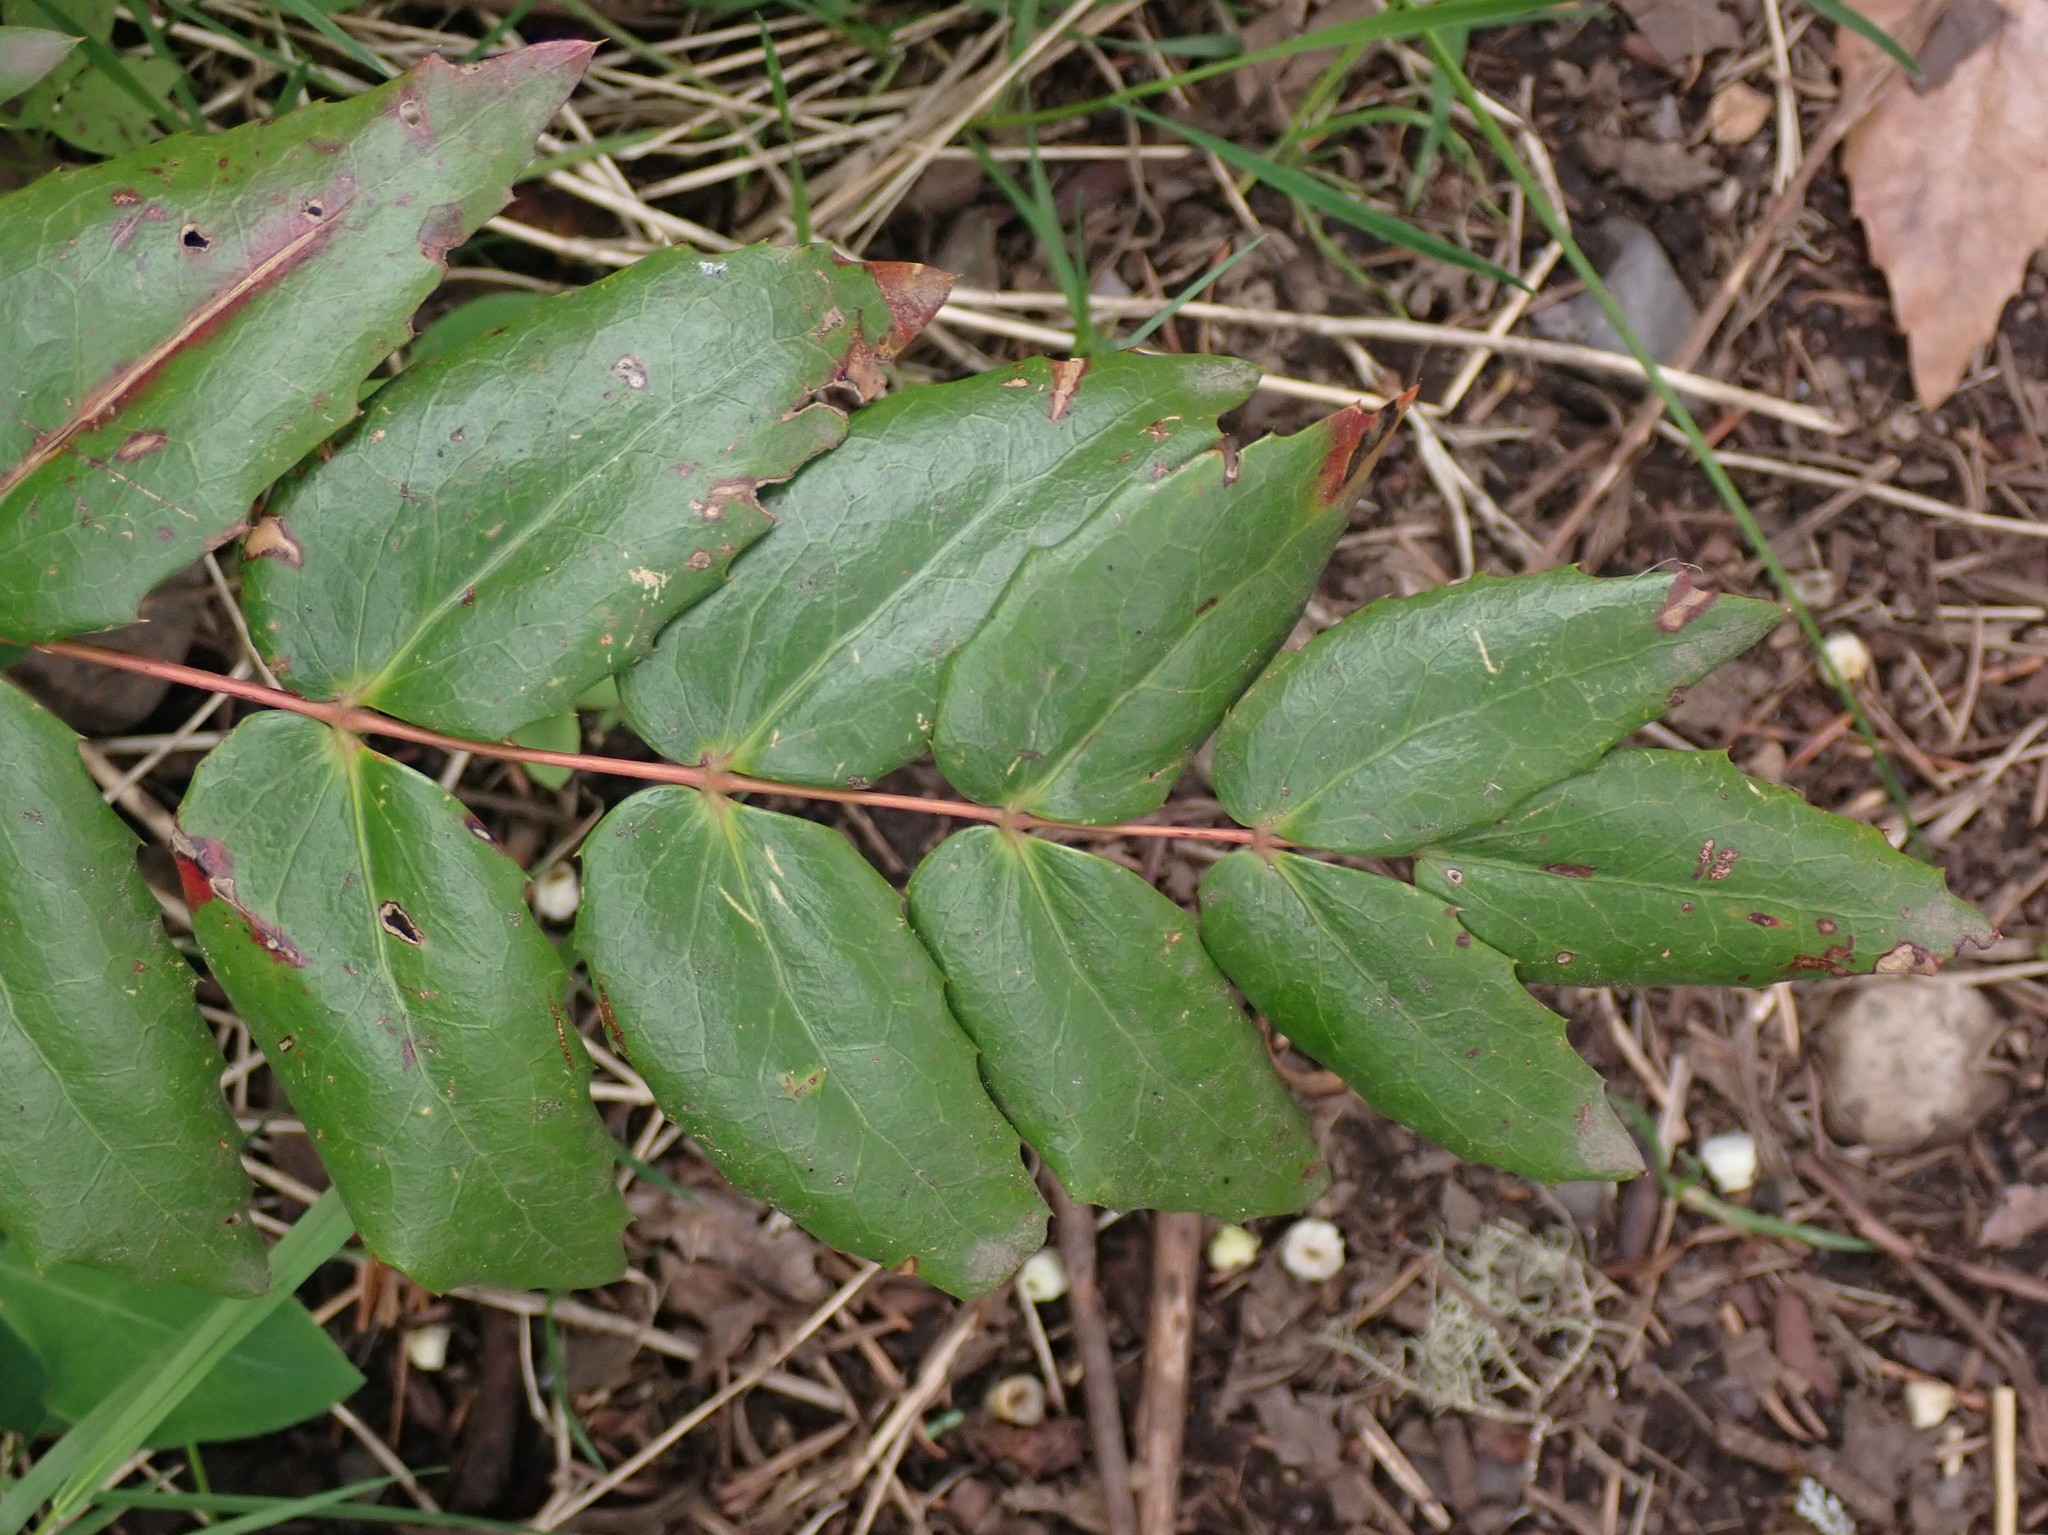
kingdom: Plantae
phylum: Tracheophyta
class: Magnoliopsida
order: Ranunculales
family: Berberidaceae
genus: Mahonia
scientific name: Mahonia nervosa
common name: Cascade oregon-grape
